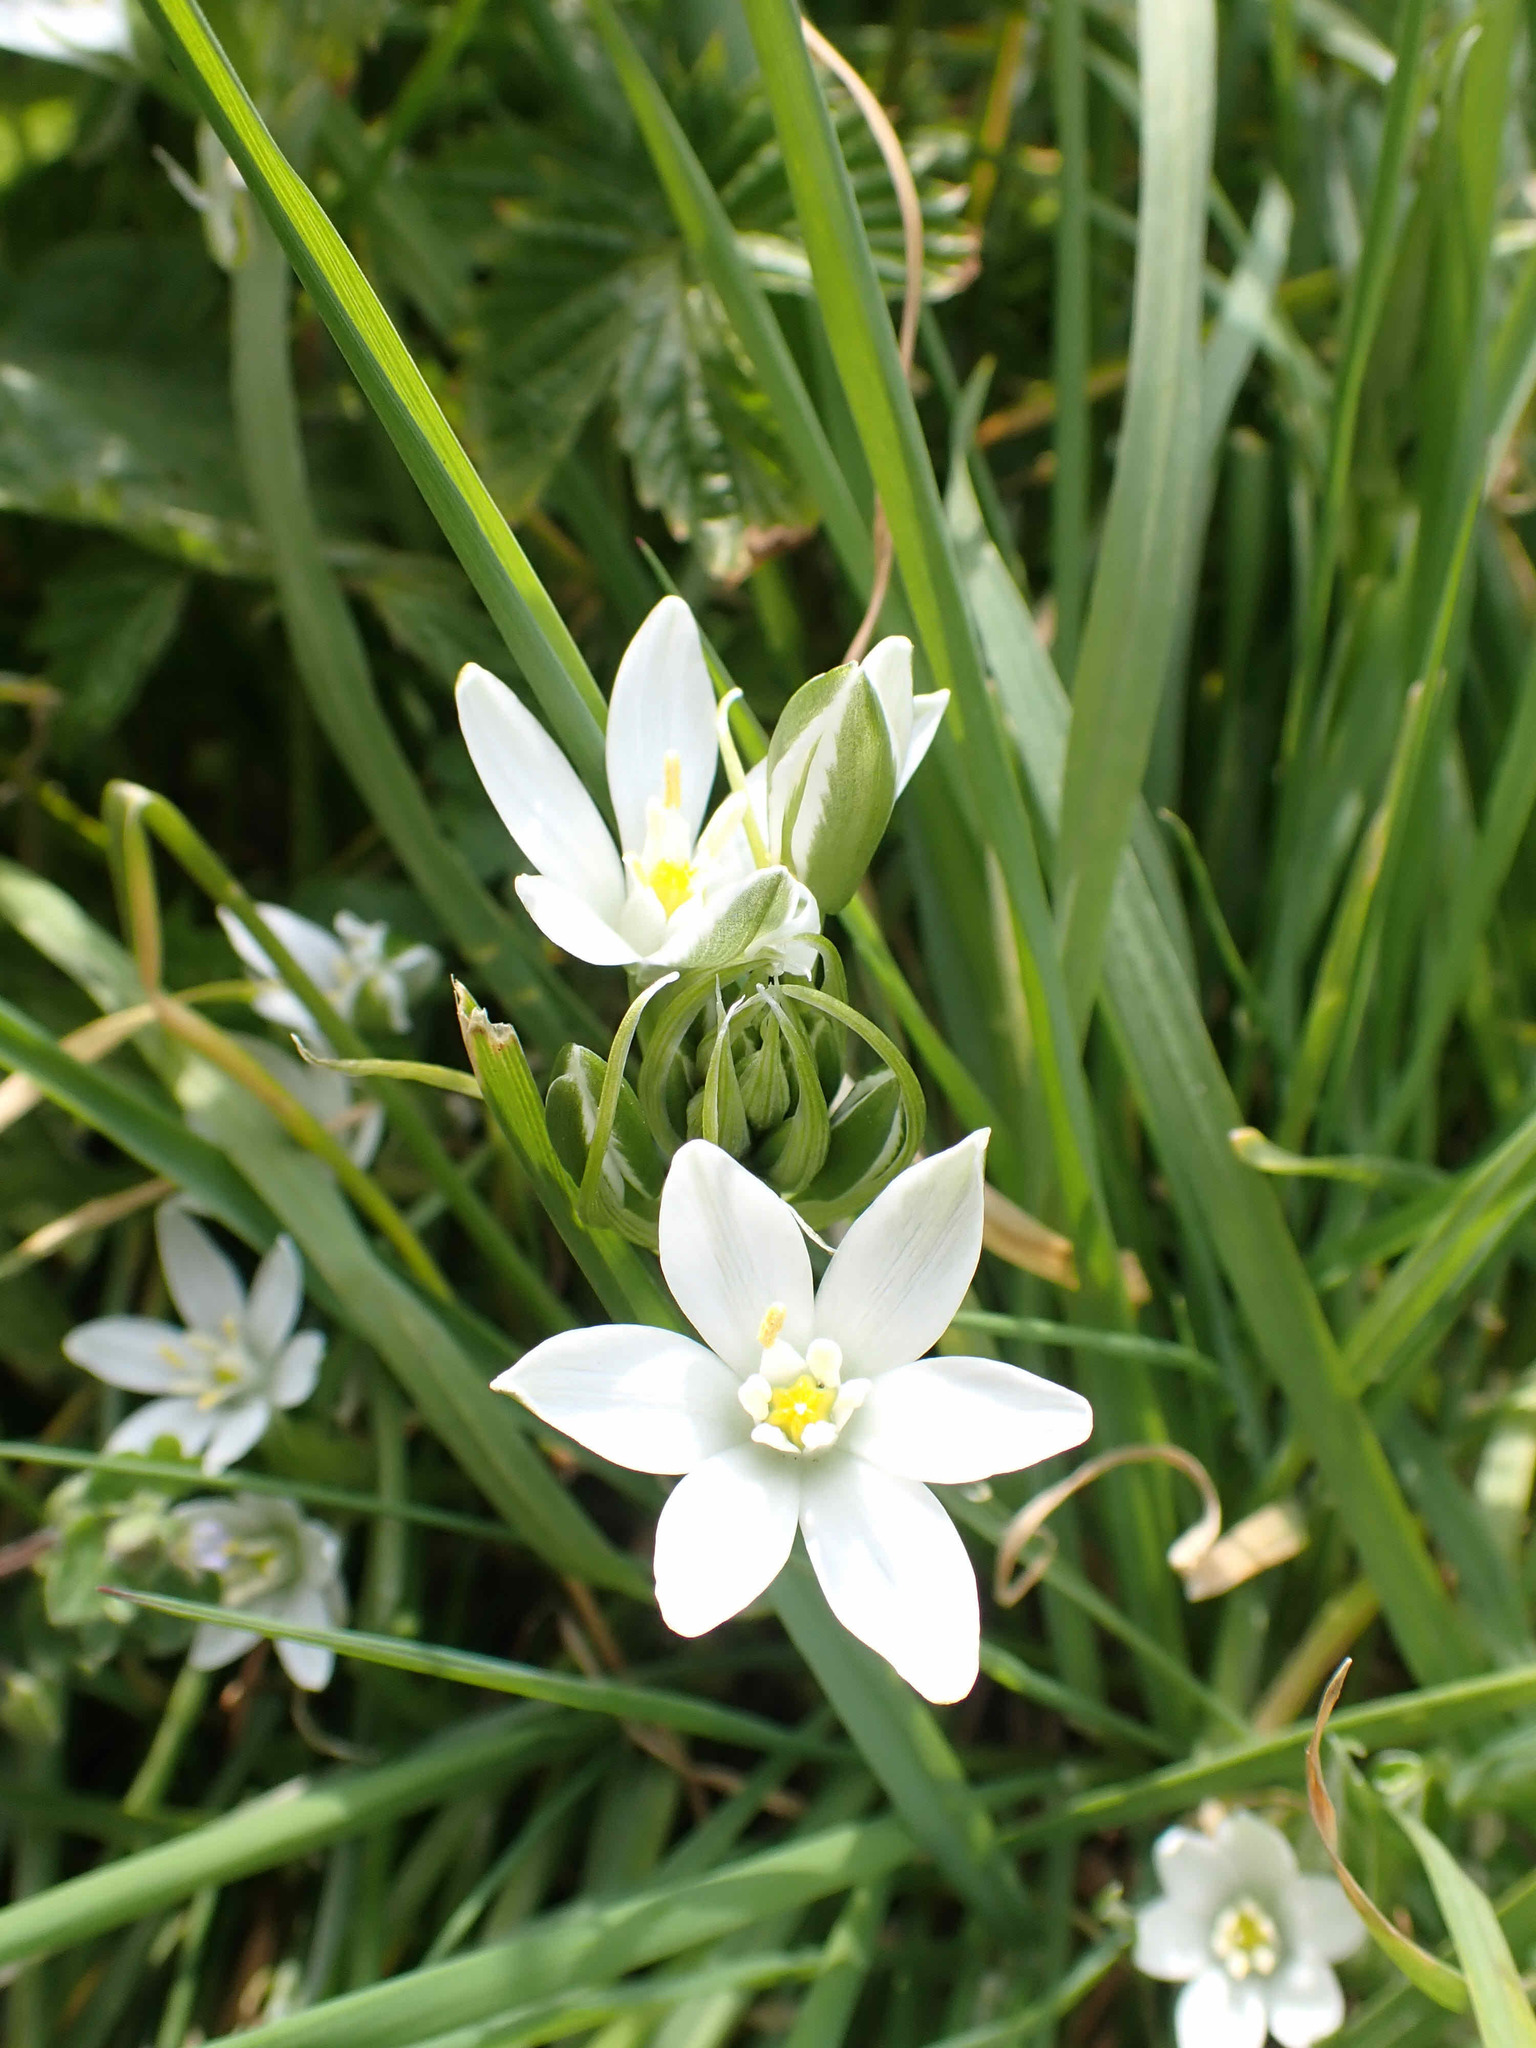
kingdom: Plantae
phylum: Tracheophyta
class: Liliopsida
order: Asparagales
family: Asparagaceae
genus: Ornithogalum
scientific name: Ornithogalum umbellatum
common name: Garden star-of-bethlehem
